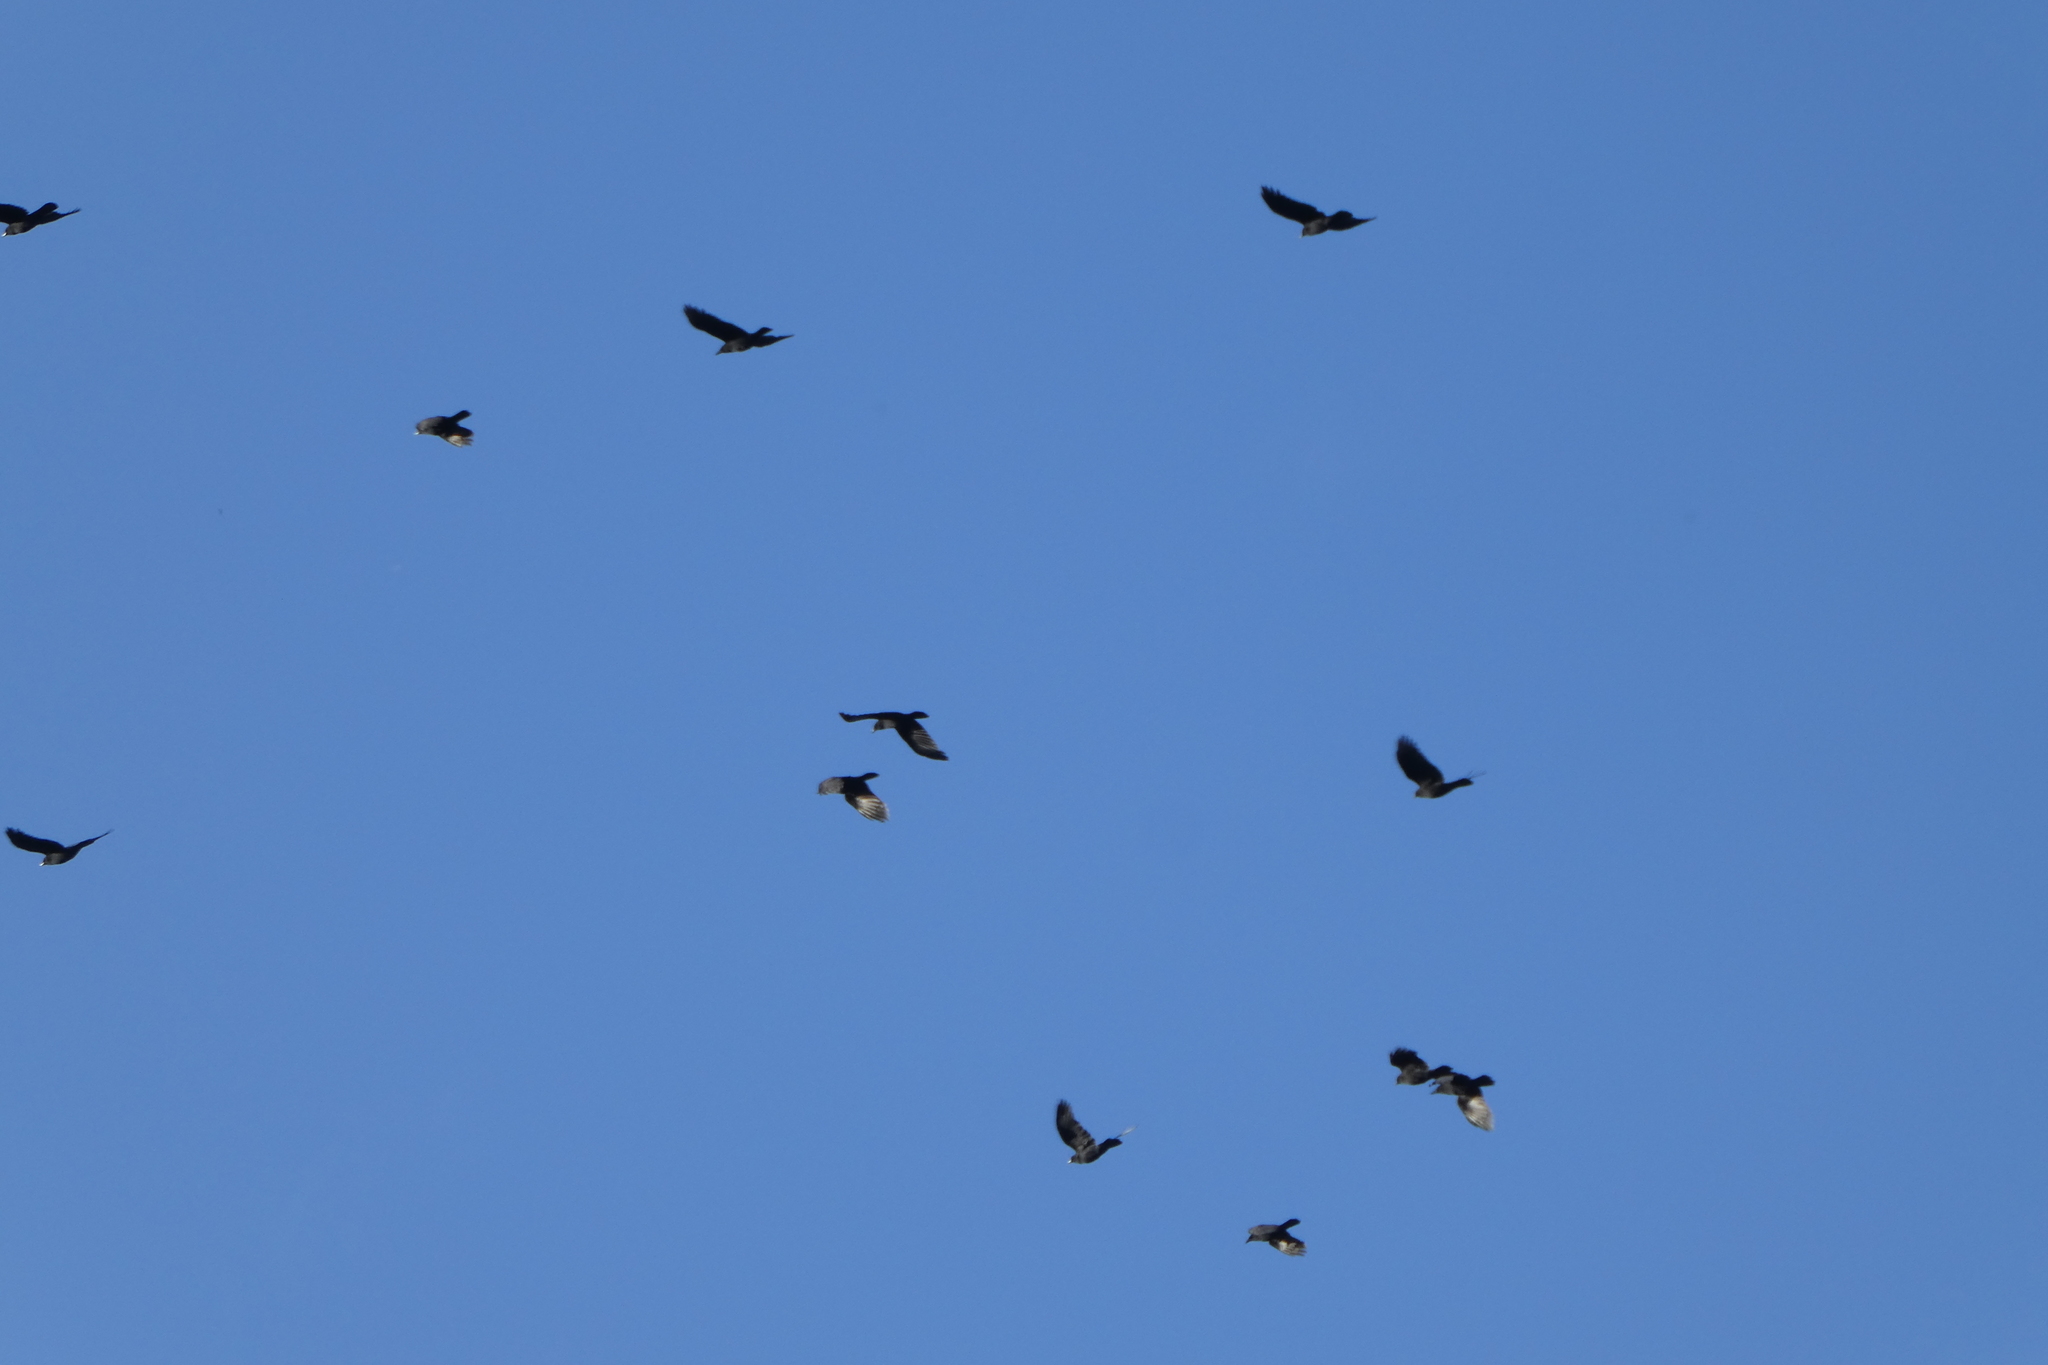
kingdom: Animalia
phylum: Chordata
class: Aves
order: Passeriformes
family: Corvidae
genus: Corvus
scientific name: Corvus brachyrhynchos
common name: American crow
